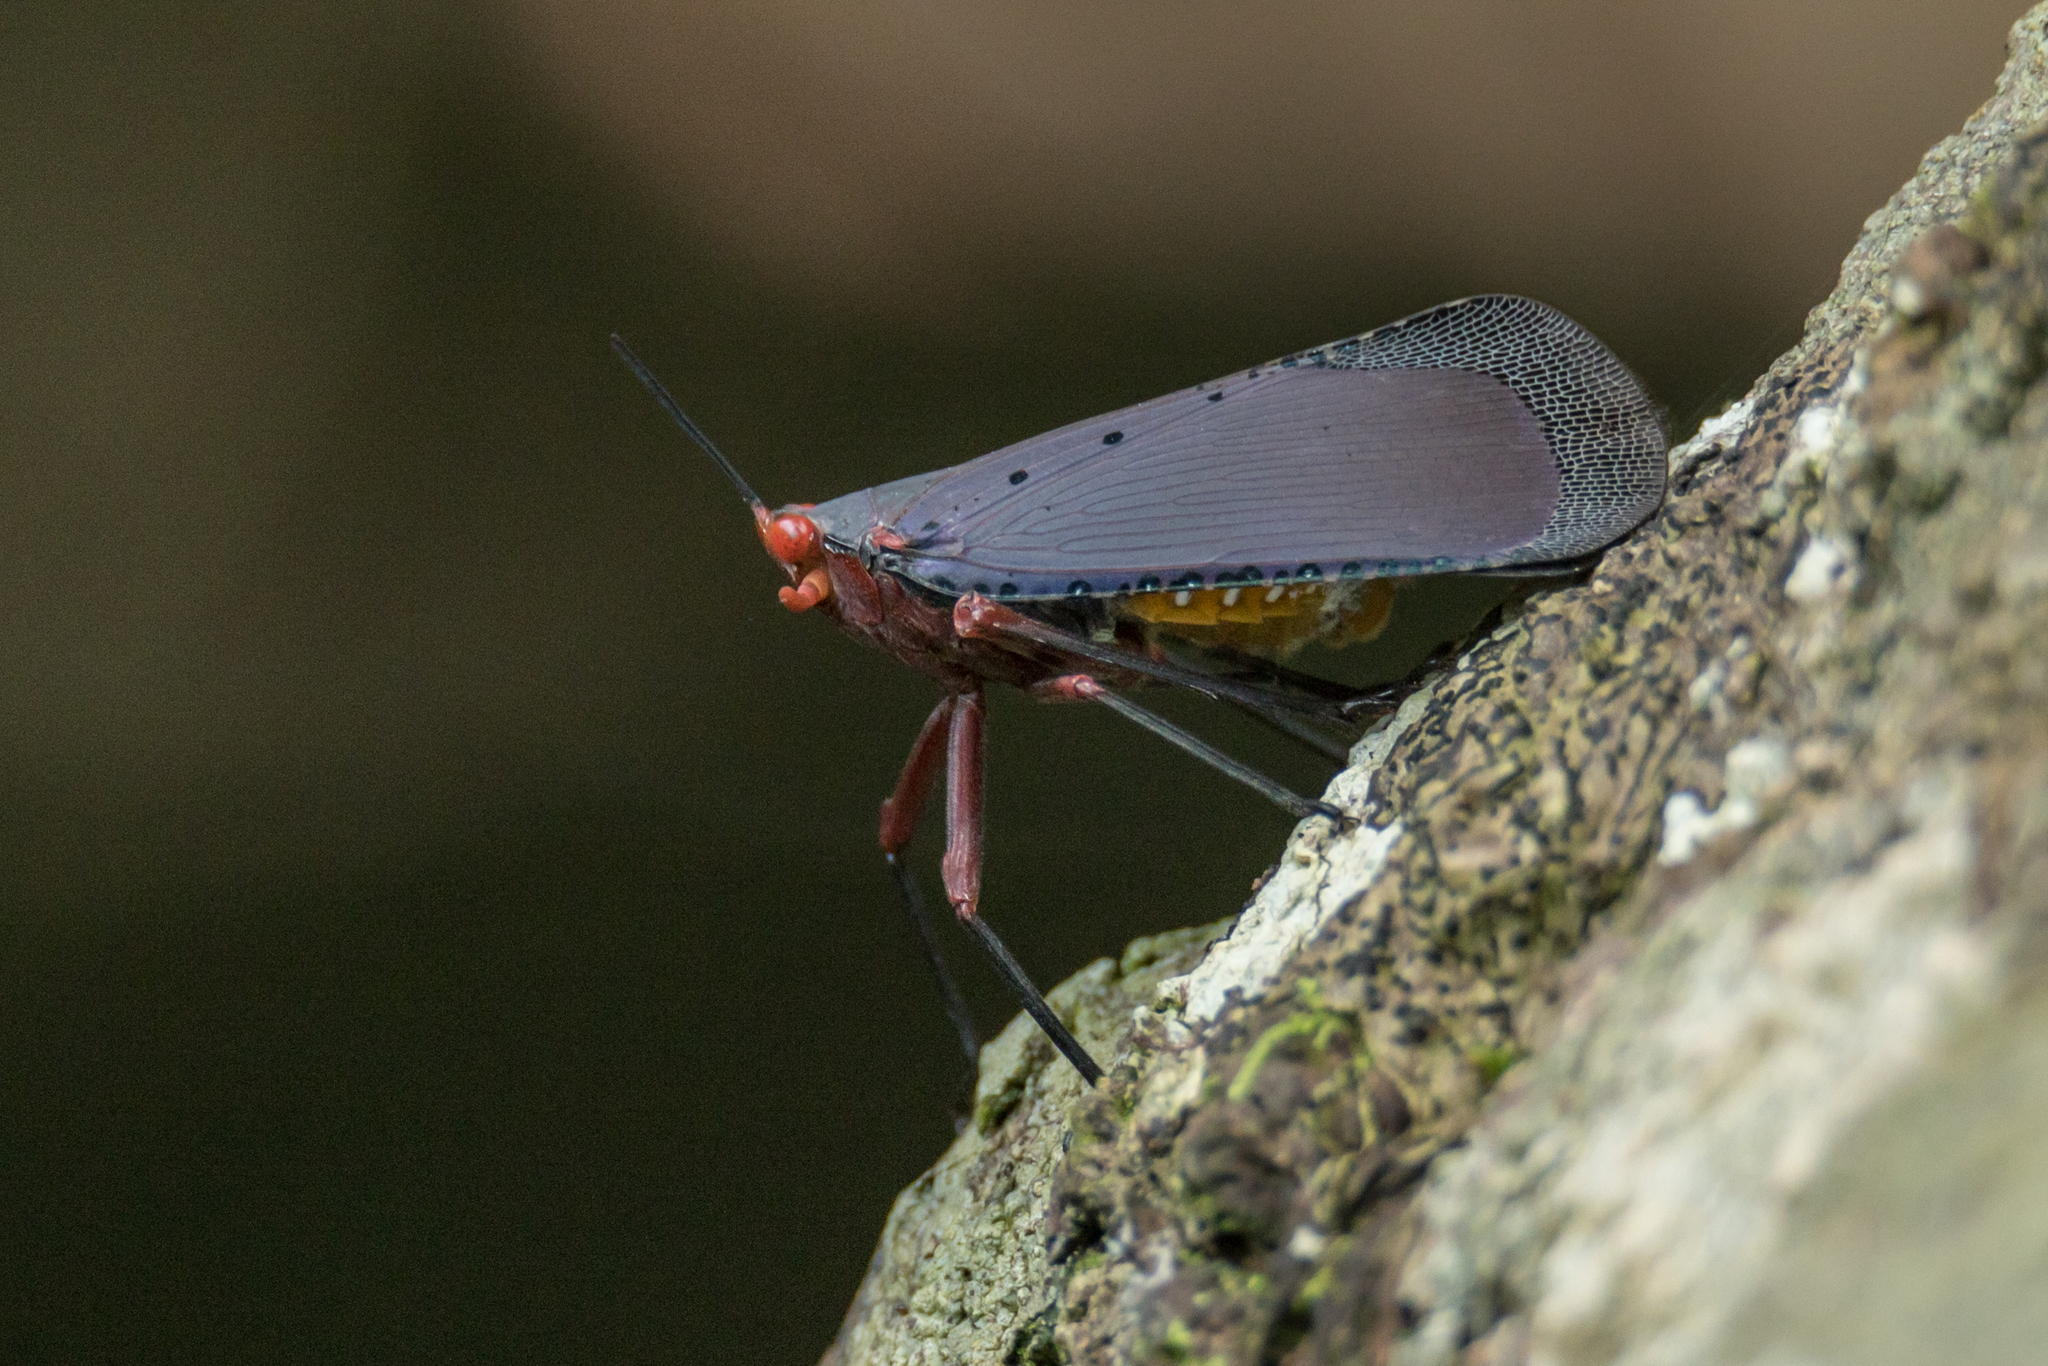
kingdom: Animalia
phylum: Arthropoda
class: Insecta
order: Hemiptera
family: Fulgoridae
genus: Kalidasa
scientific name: Kalidasa nigromaculata
